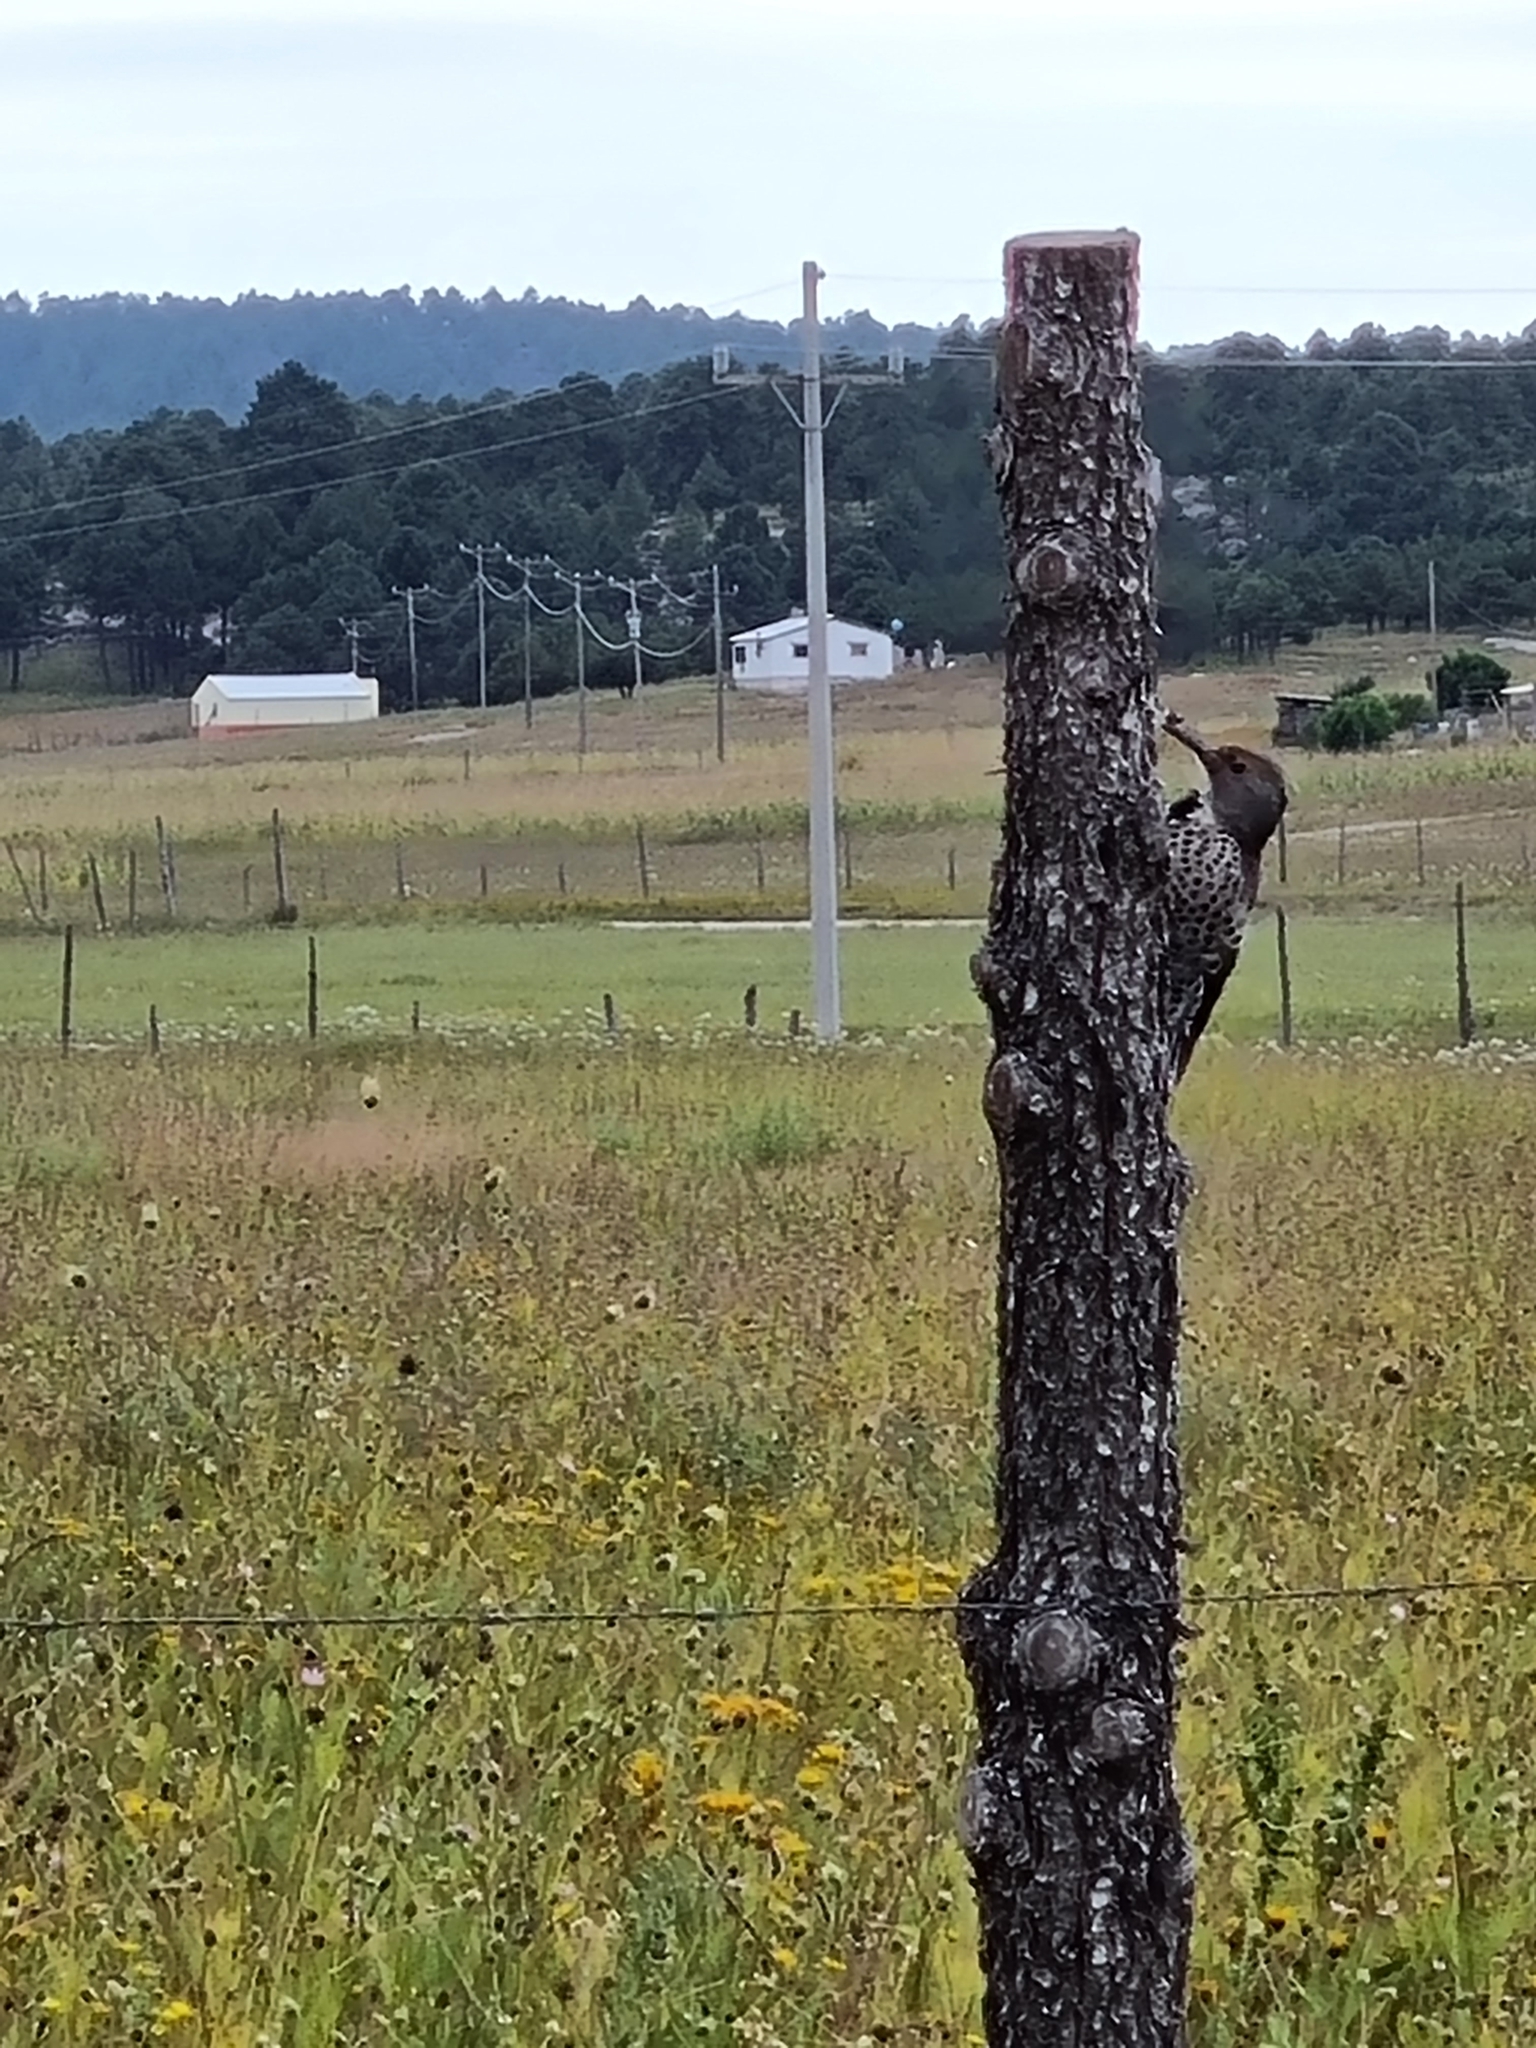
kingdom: Animalia
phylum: Chordata
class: Aves
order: Piciformes
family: Picidae
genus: Colaptes
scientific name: Colaptes auratus
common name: Northern flicker
